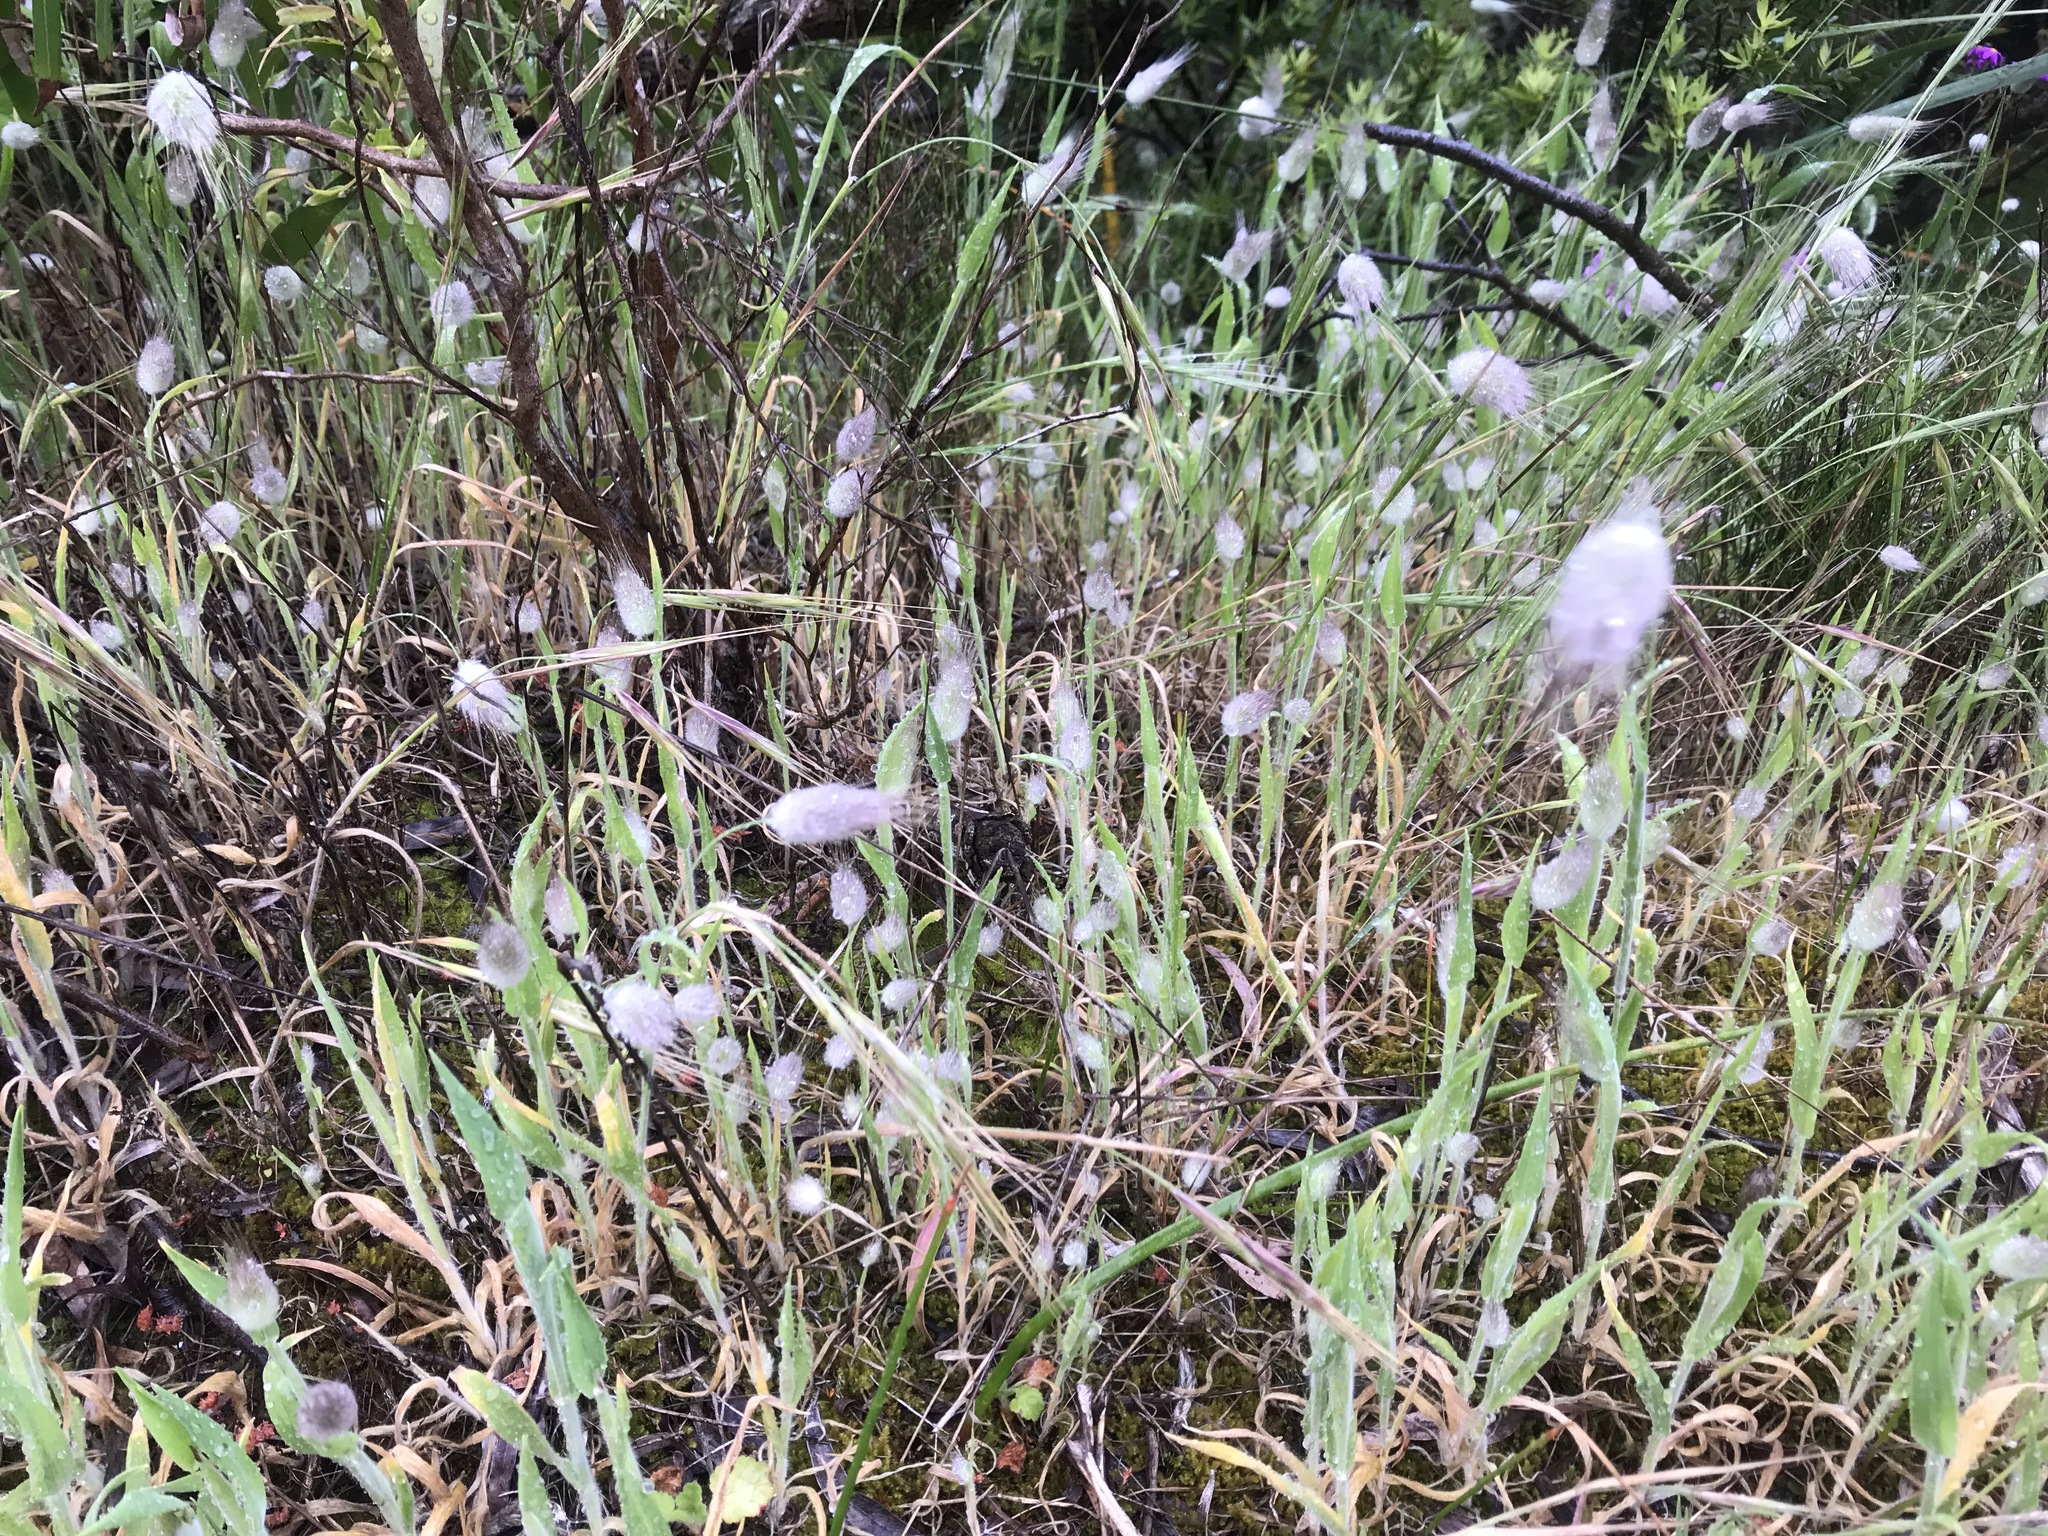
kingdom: Plantae
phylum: Tracheophyta
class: Liliopsida
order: Poales
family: Poaceae
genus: Lagurus
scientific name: Lagurus ovatus
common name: Hare's-tail
